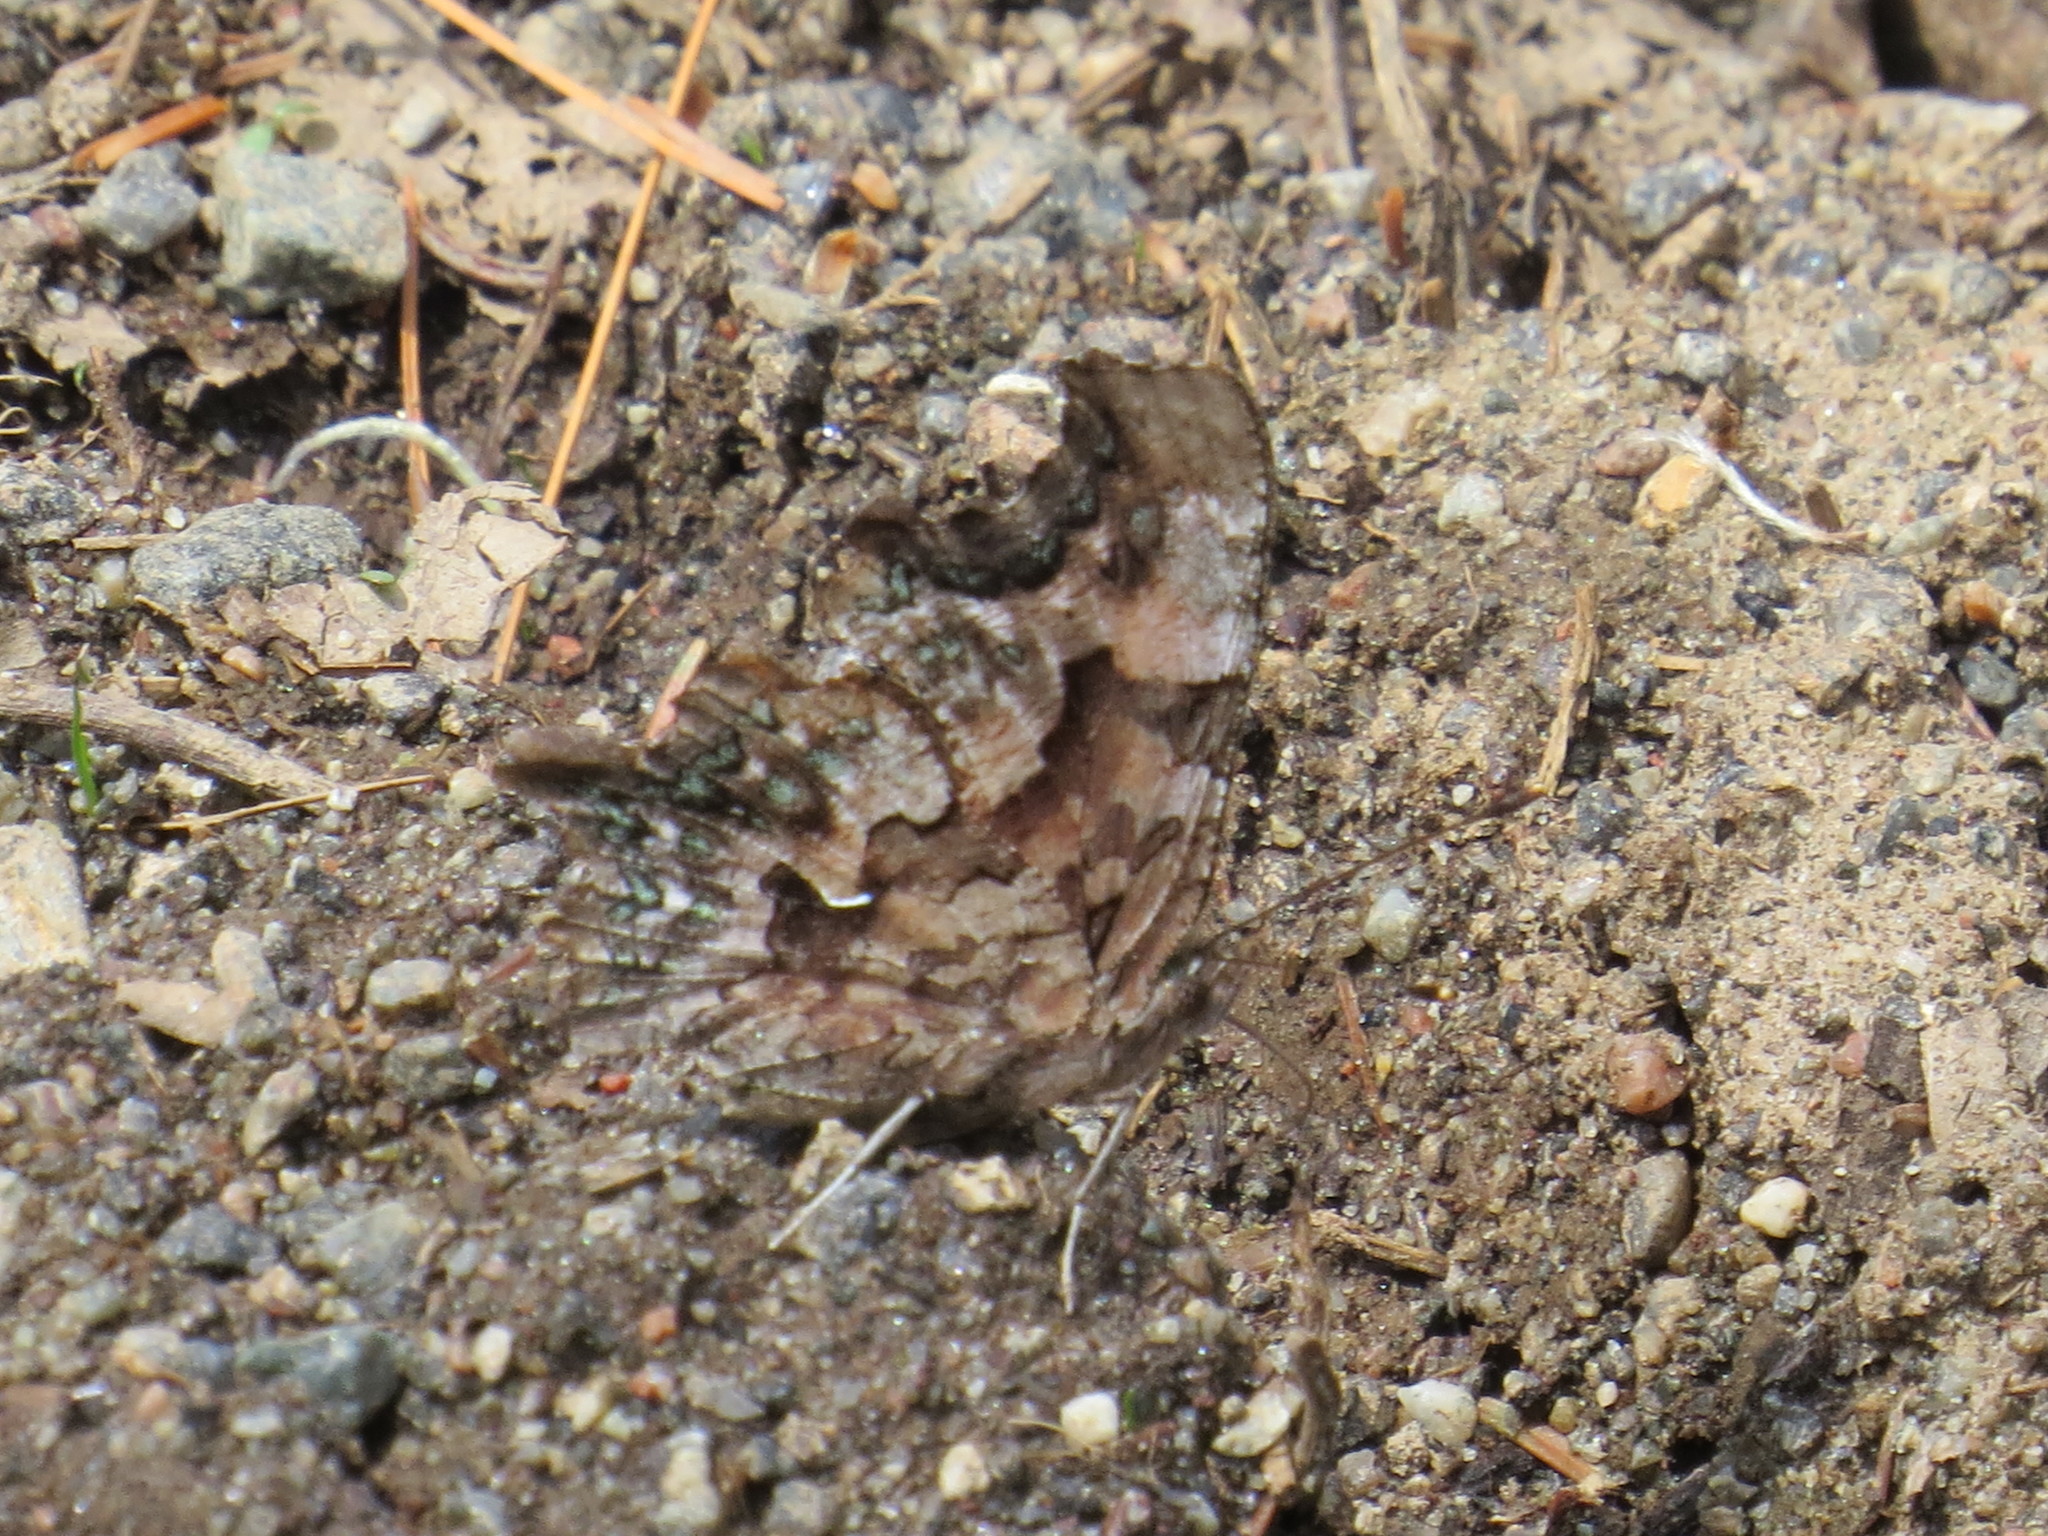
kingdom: Animalia
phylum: Arthropoda
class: Insecta
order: Lepidoptera
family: Nymphalidae
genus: Polygonia
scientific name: Polygonia faunus
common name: Green comma
